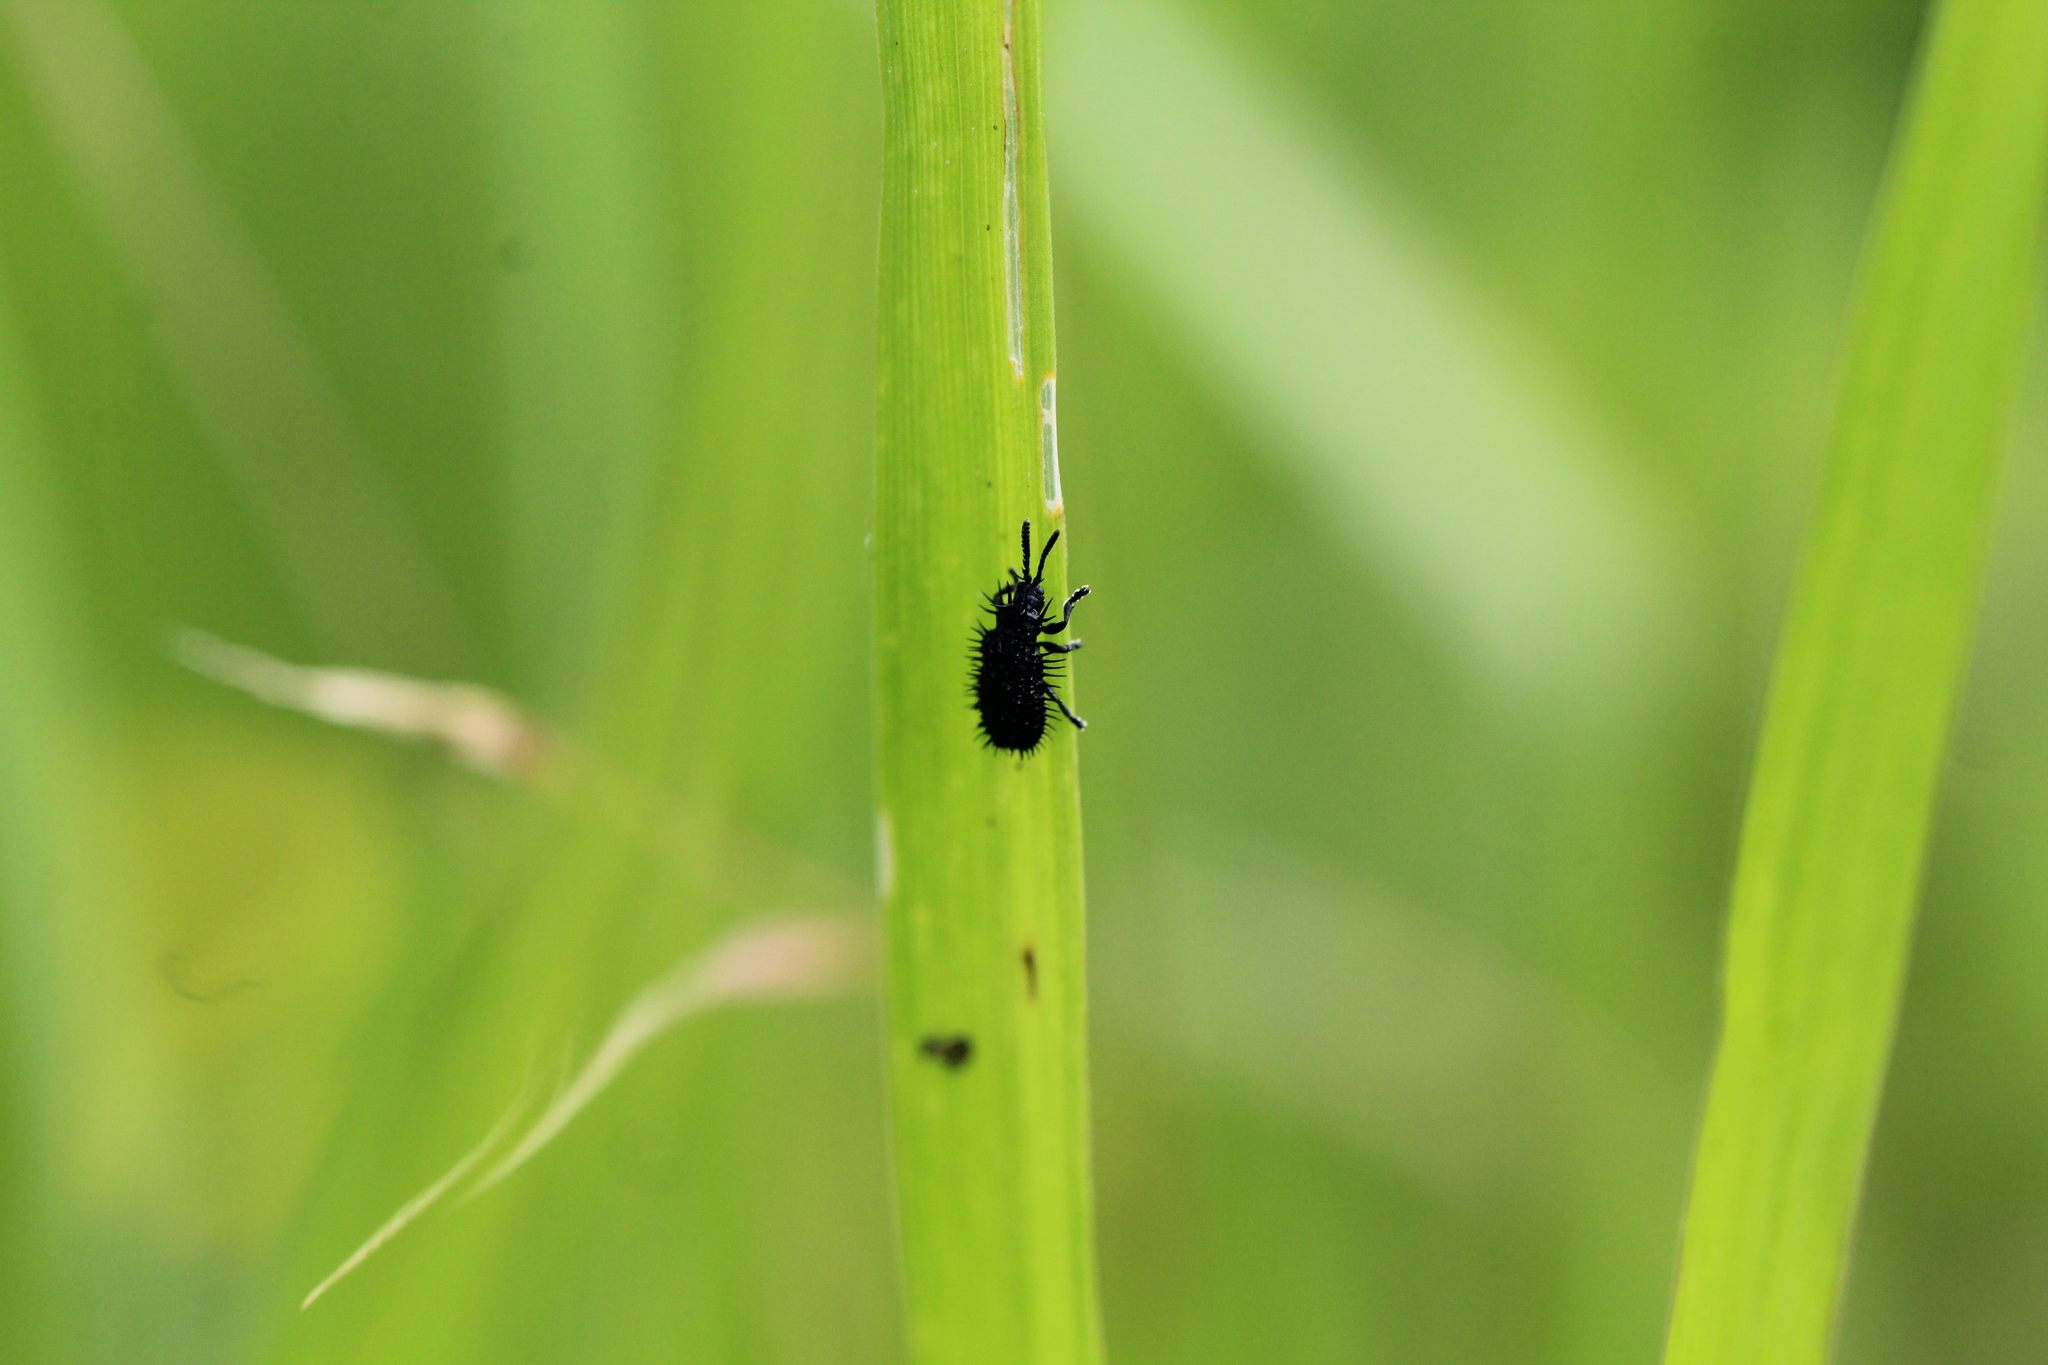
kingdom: Animalia
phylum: Arthropoda
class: Insecta
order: Coleoptera
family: Chrysomelidae
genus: Hispa
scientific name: Hispa atra
